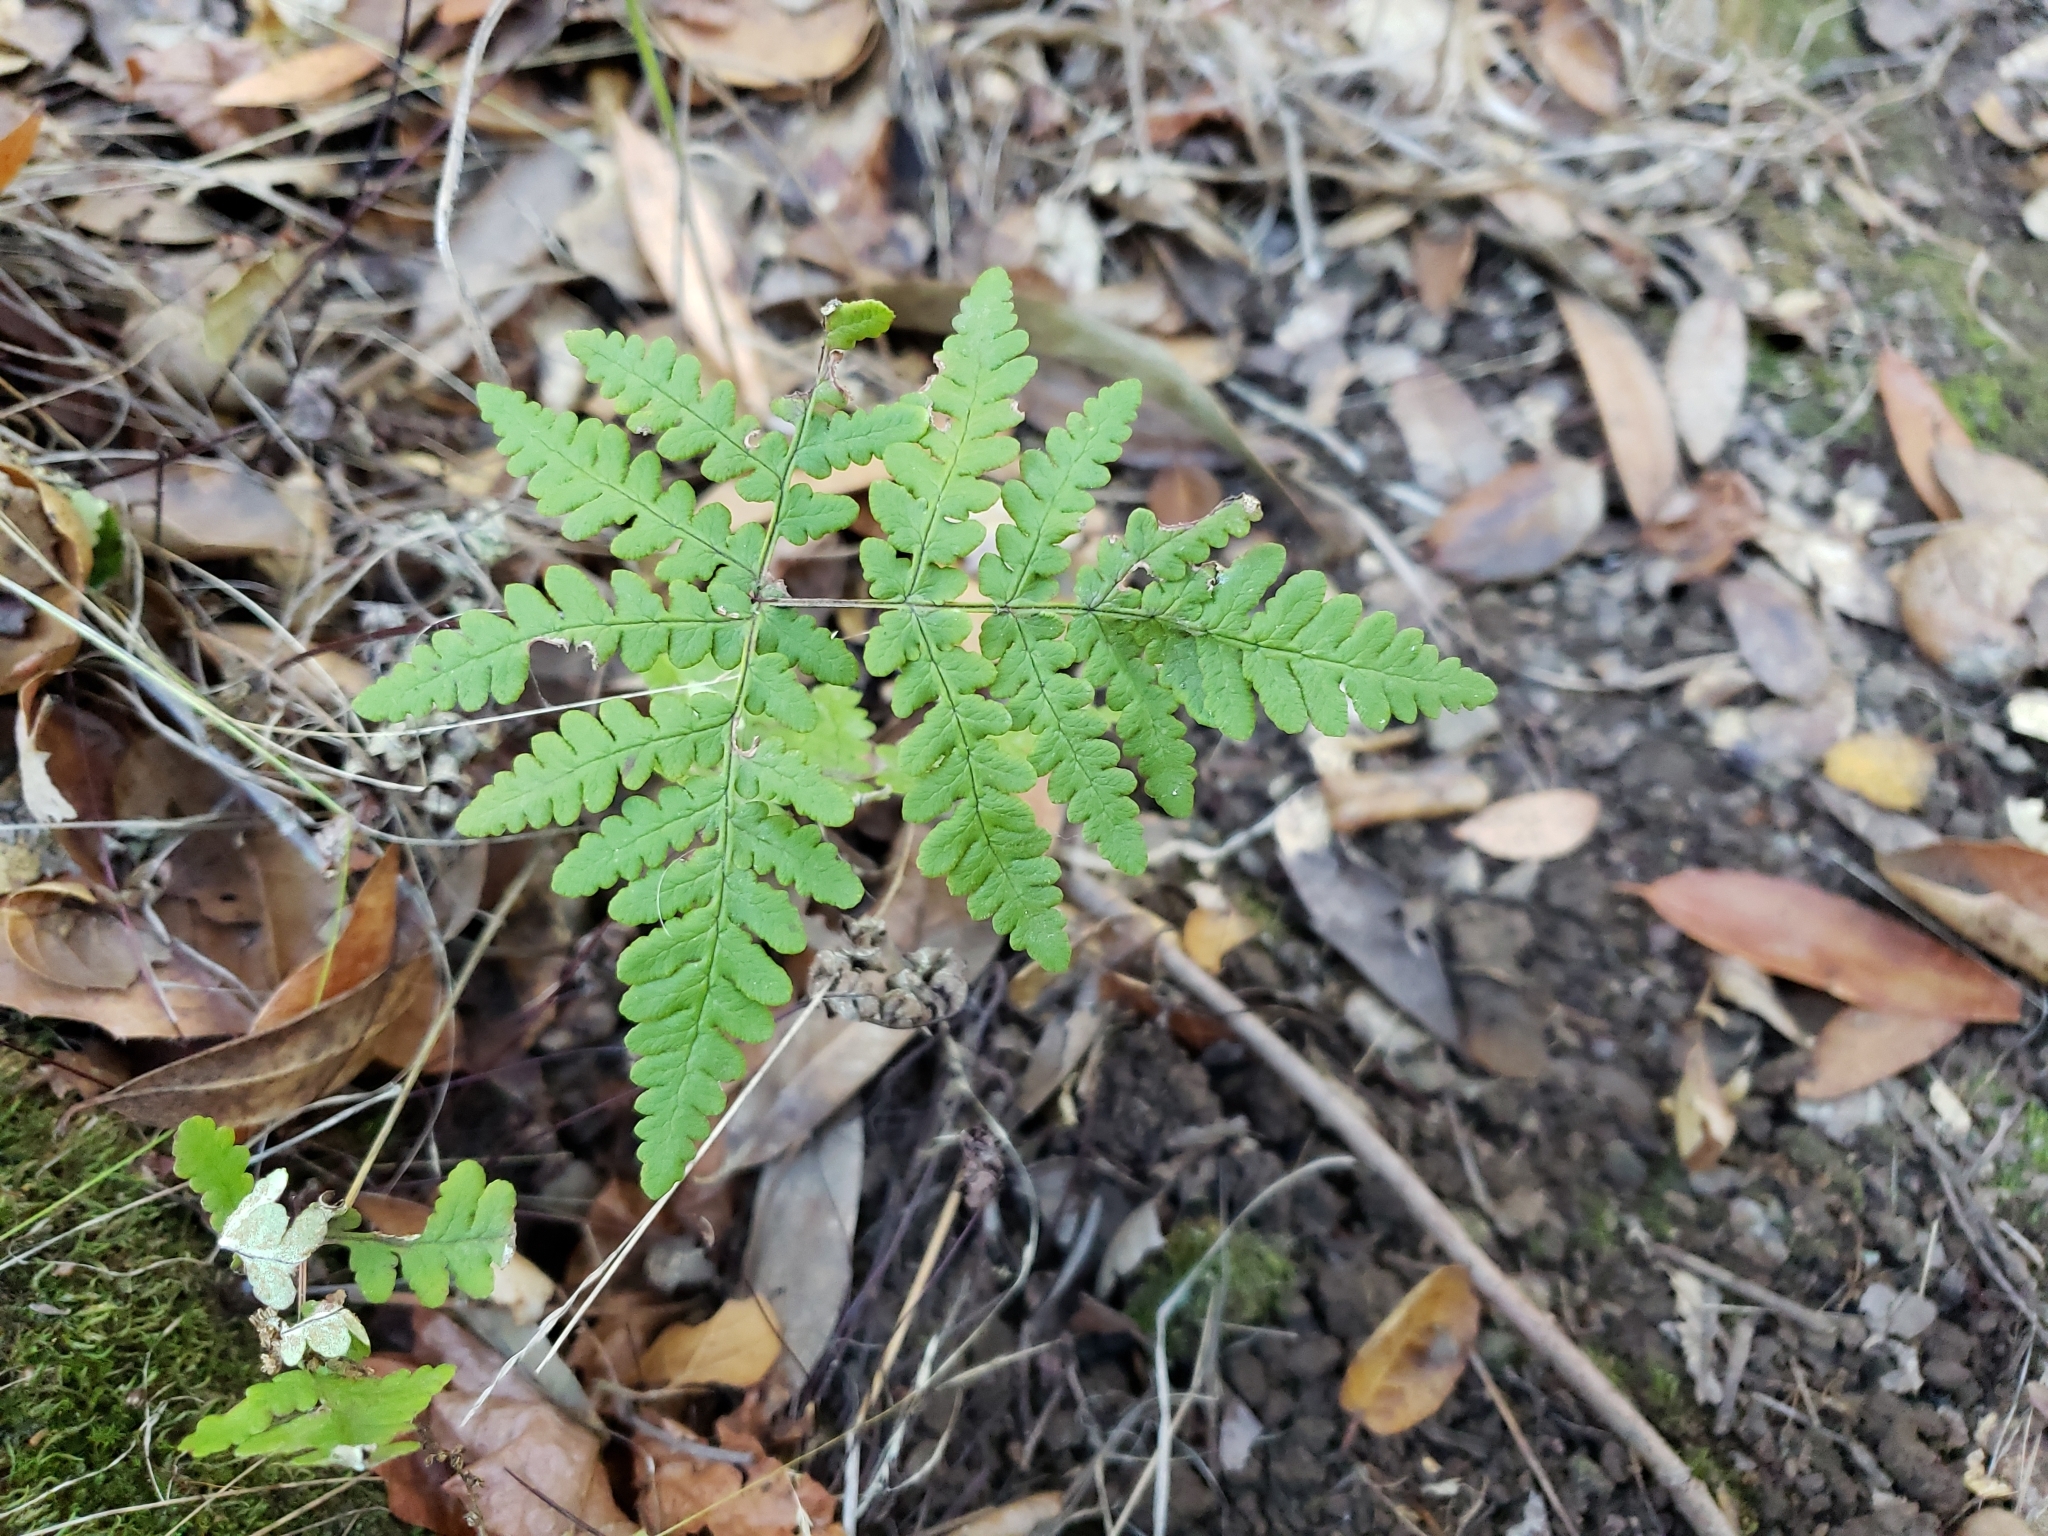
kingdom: Plantae
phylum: Tracheophyta
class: Polypodiopsida
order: Polypodiales
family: Pteridaceae
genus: Pentagramma
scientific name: Pentagramma triangularis
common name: Gold fern
